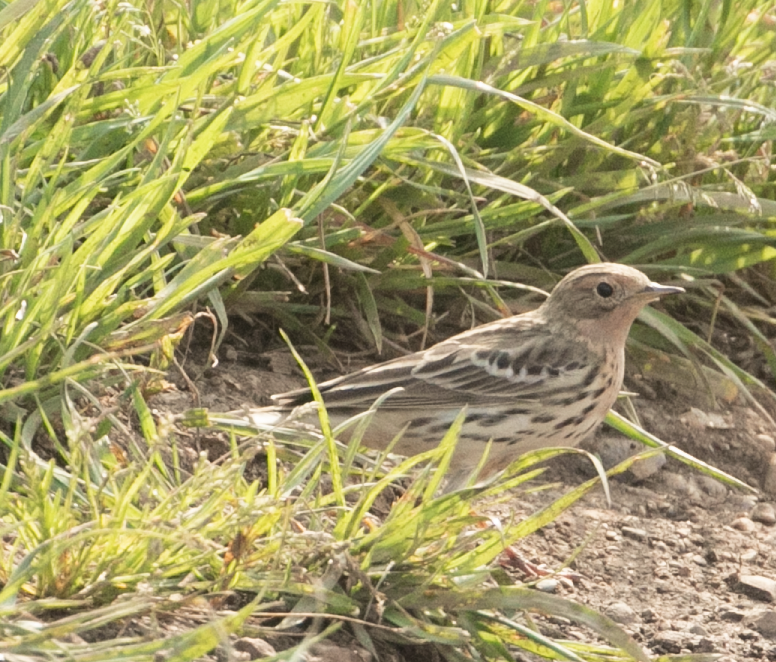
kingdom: Animalia
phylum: Chordata
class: Aves
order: Passeriformes
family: Motacillidae
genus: Anthus
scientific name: Anthus cervinus
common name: Red-throated pipit
